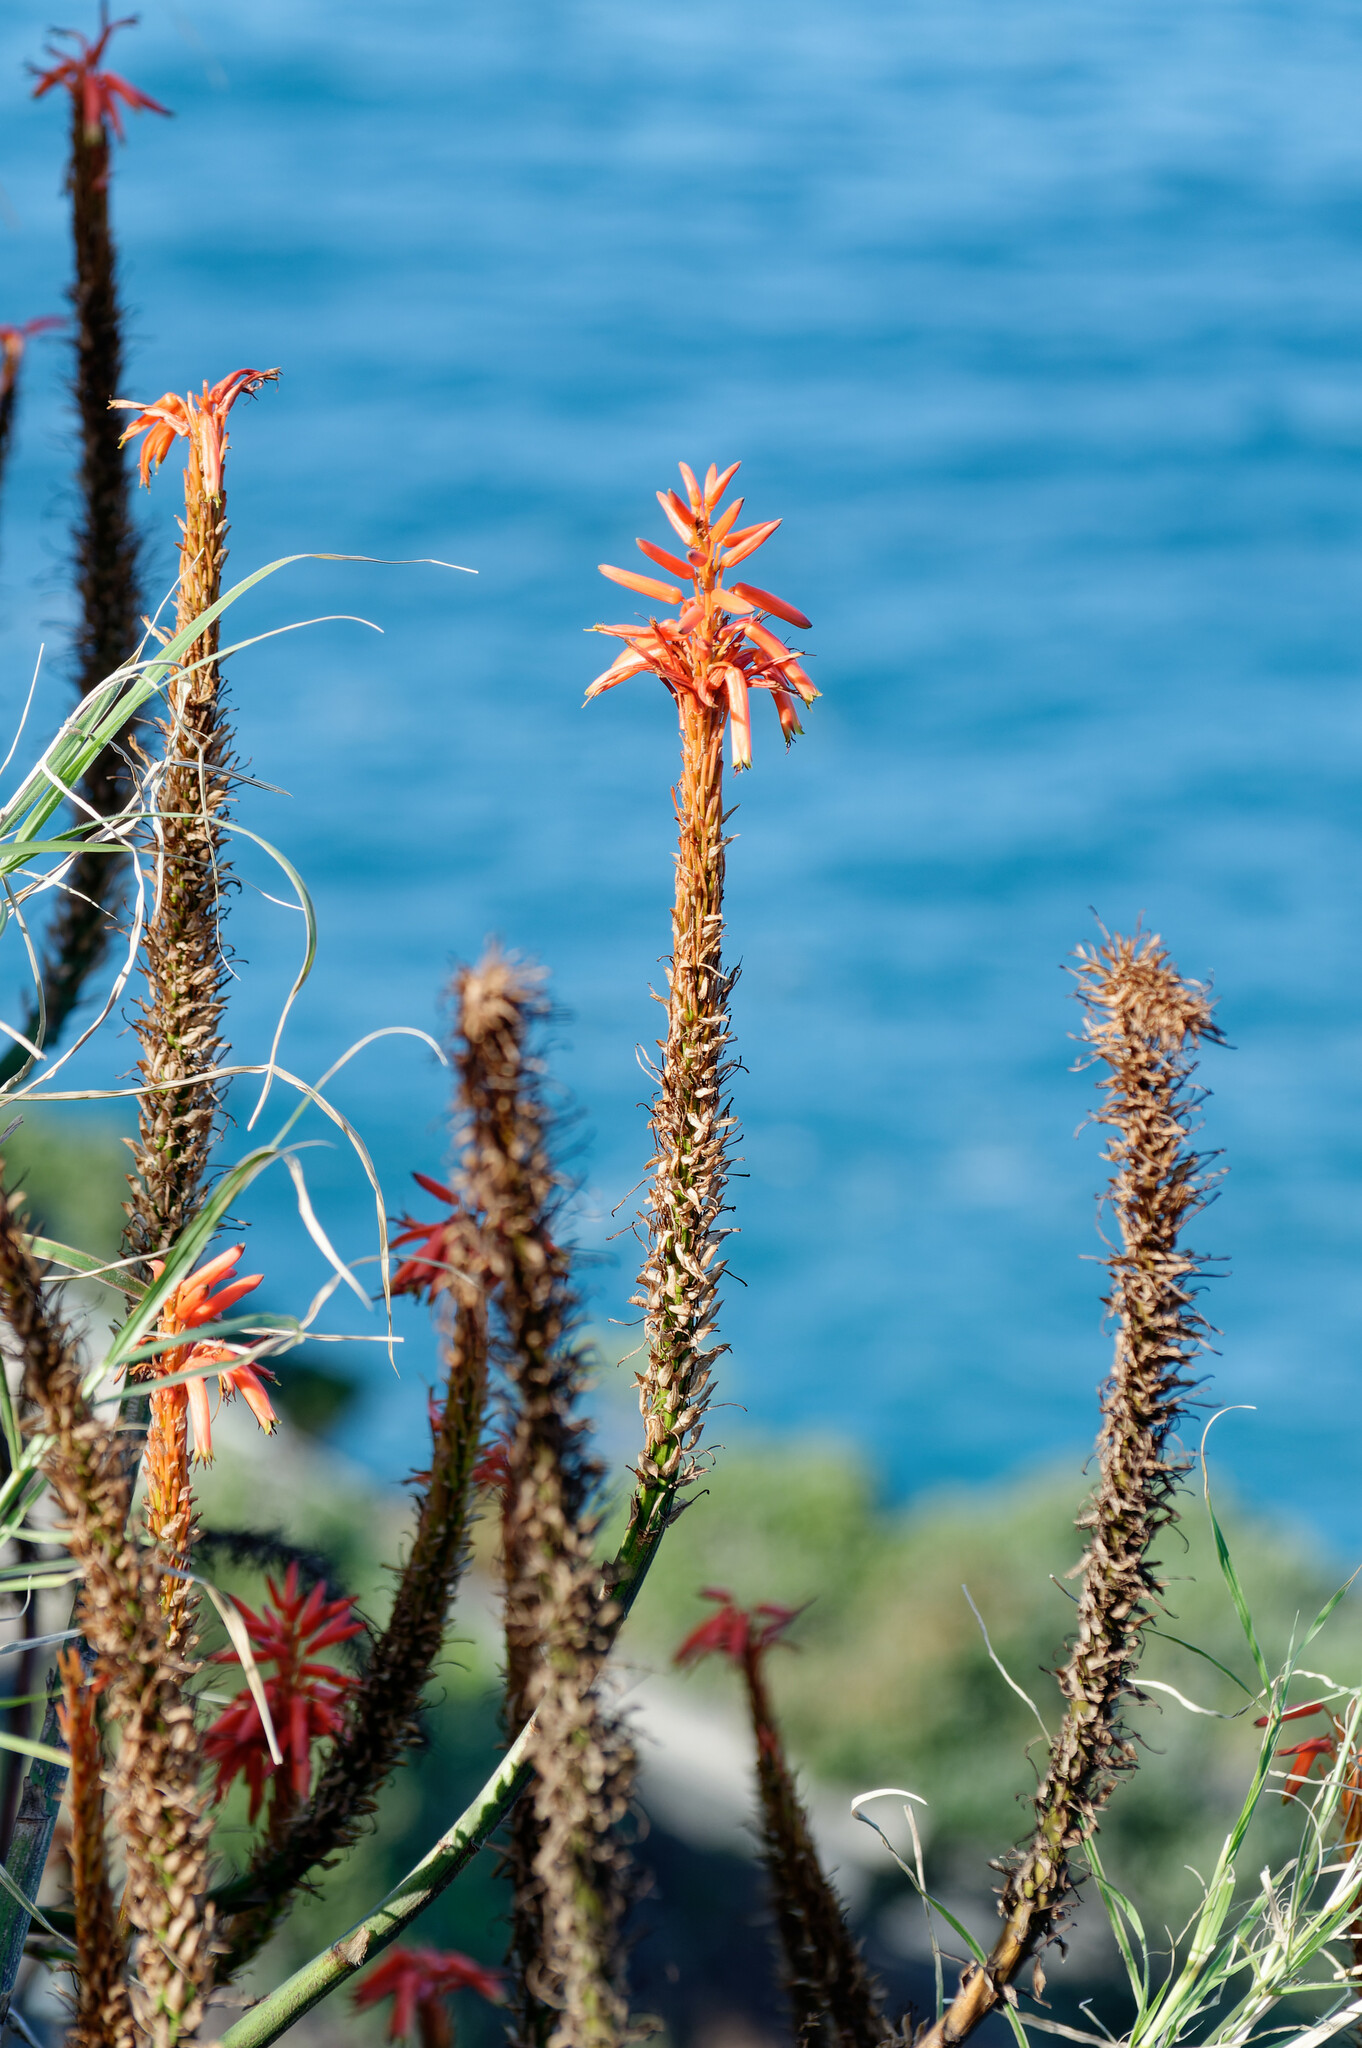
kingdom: Plantae
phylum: Tracheophyta
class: Liliopsida
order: Asparagales
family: Asphodelaceae
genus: Aloe
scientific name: Aloe arborescens
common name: Candelabra aloe
